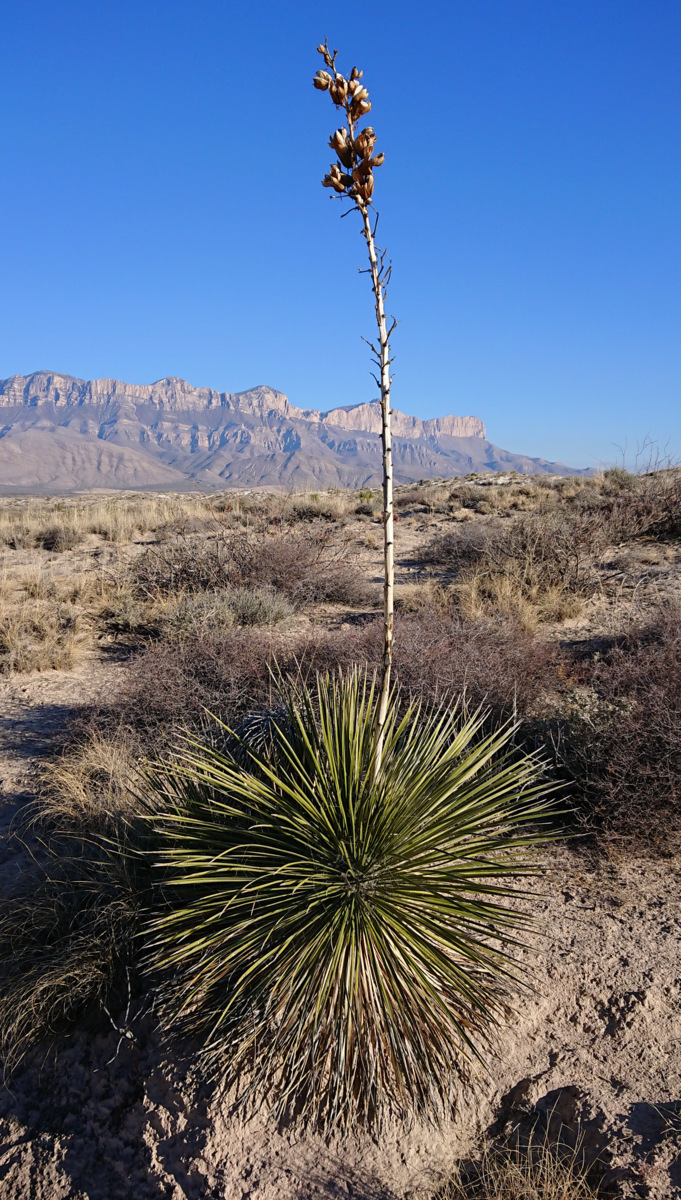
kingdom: Plantae
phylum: Tracheophyta
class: Liliopsida
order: Asparagales
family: Asparagaceae
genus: Yucca
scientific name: Yucca elata
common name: Palmella
